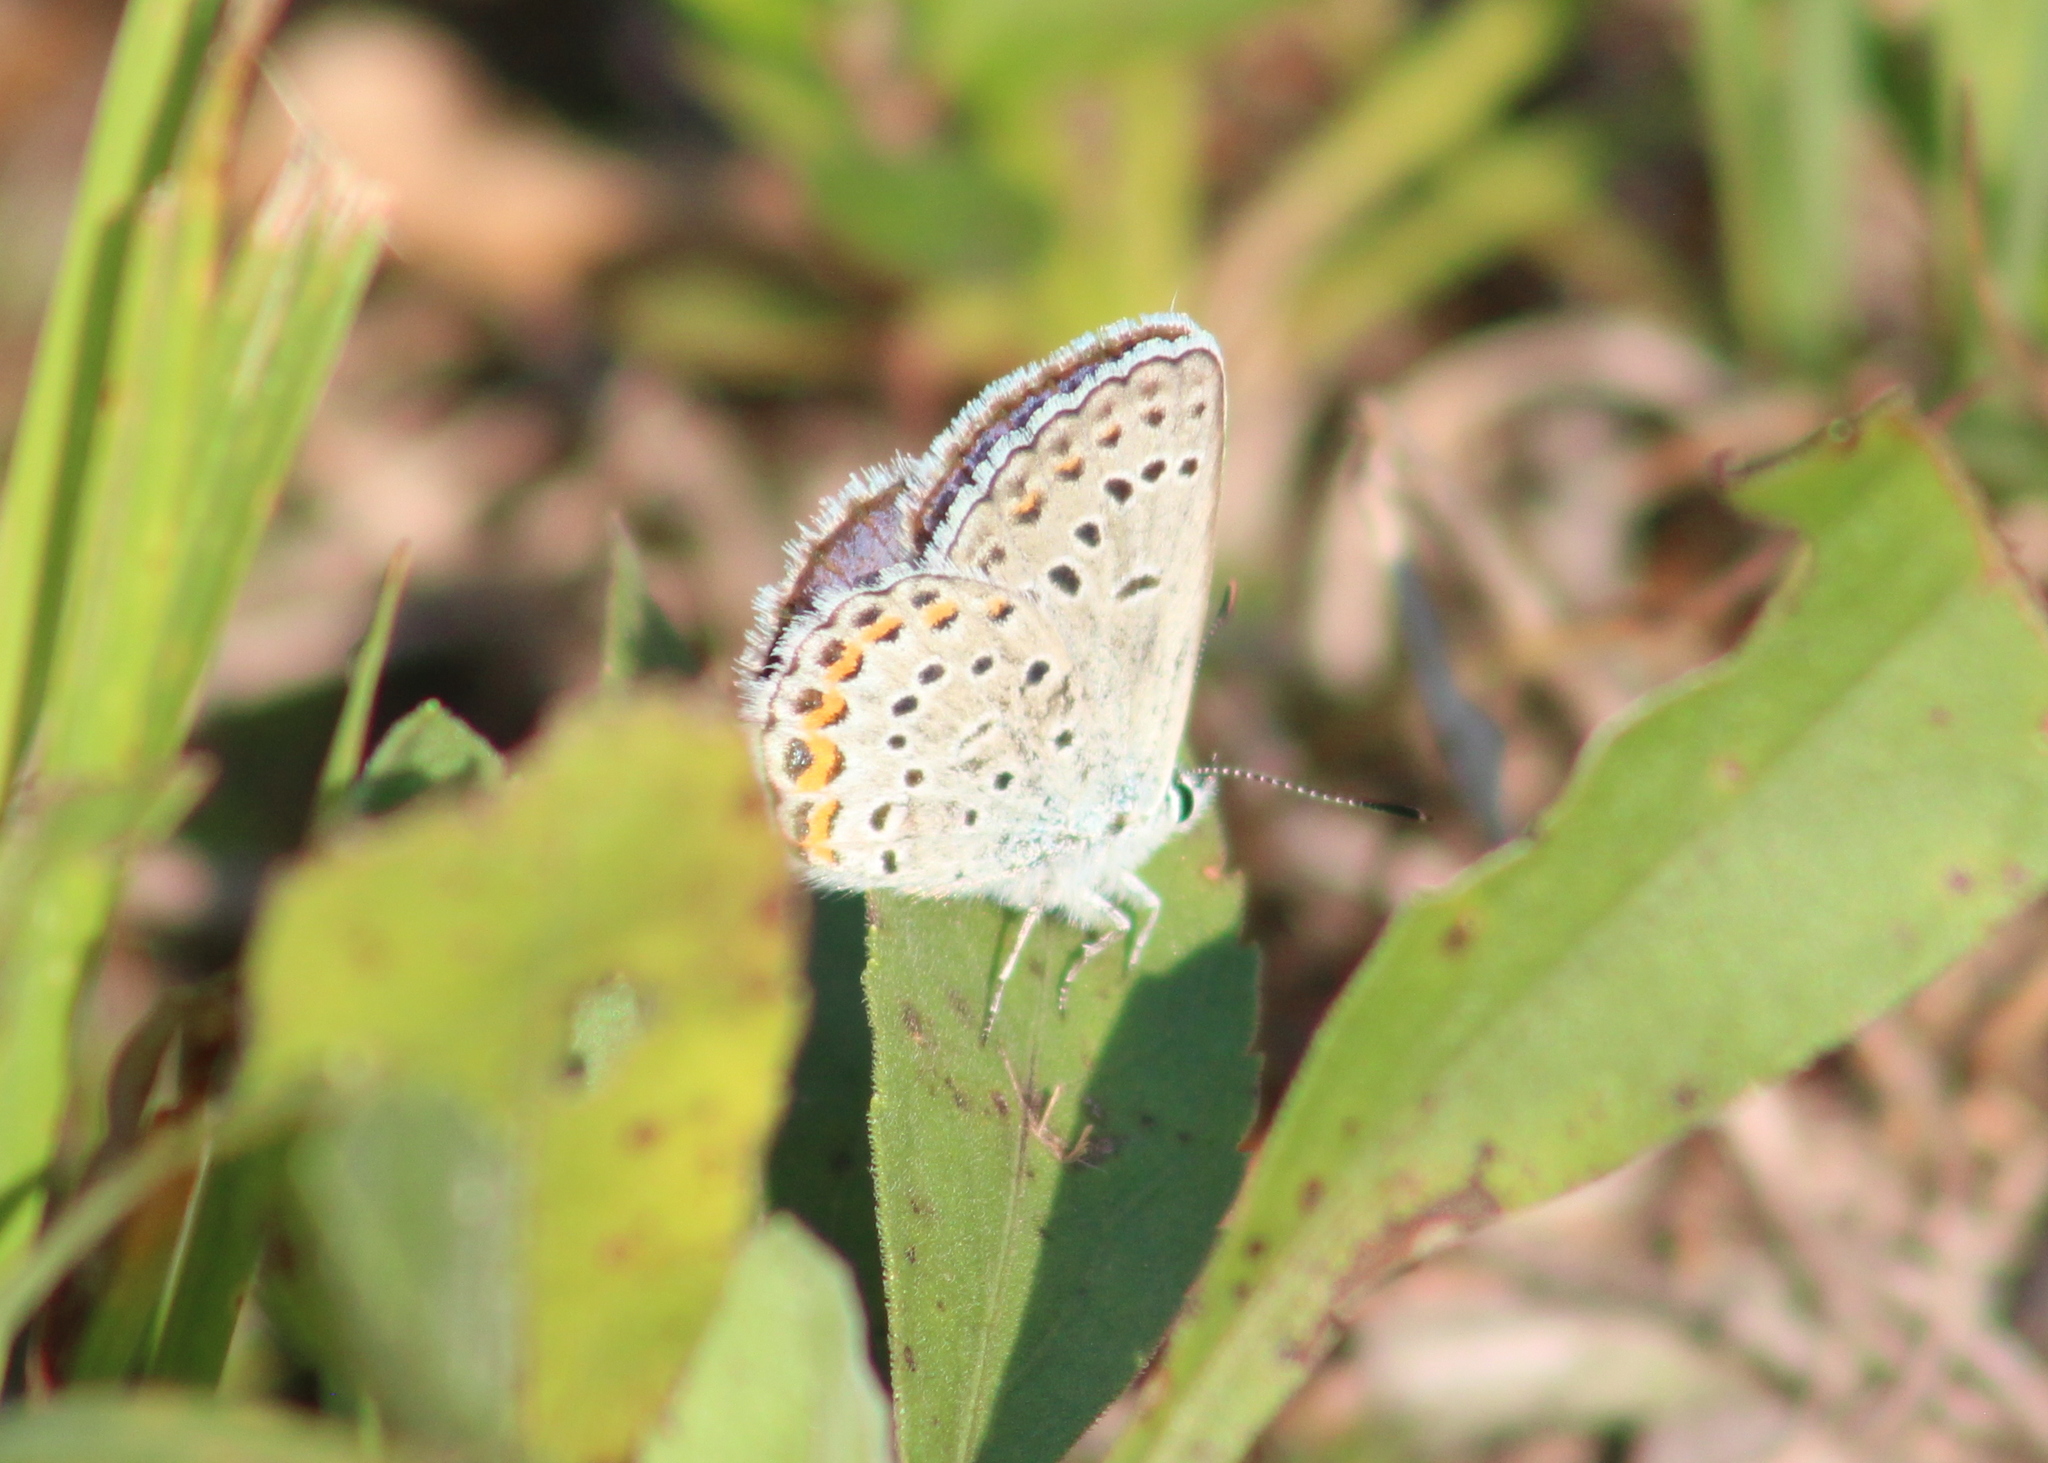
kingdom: Animalia
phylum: Arthropoda
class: Insecta
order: Lepidoptera
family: Lycaenidae
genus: Plebejus
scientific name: Plebejus samuelis
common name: Karner blue
